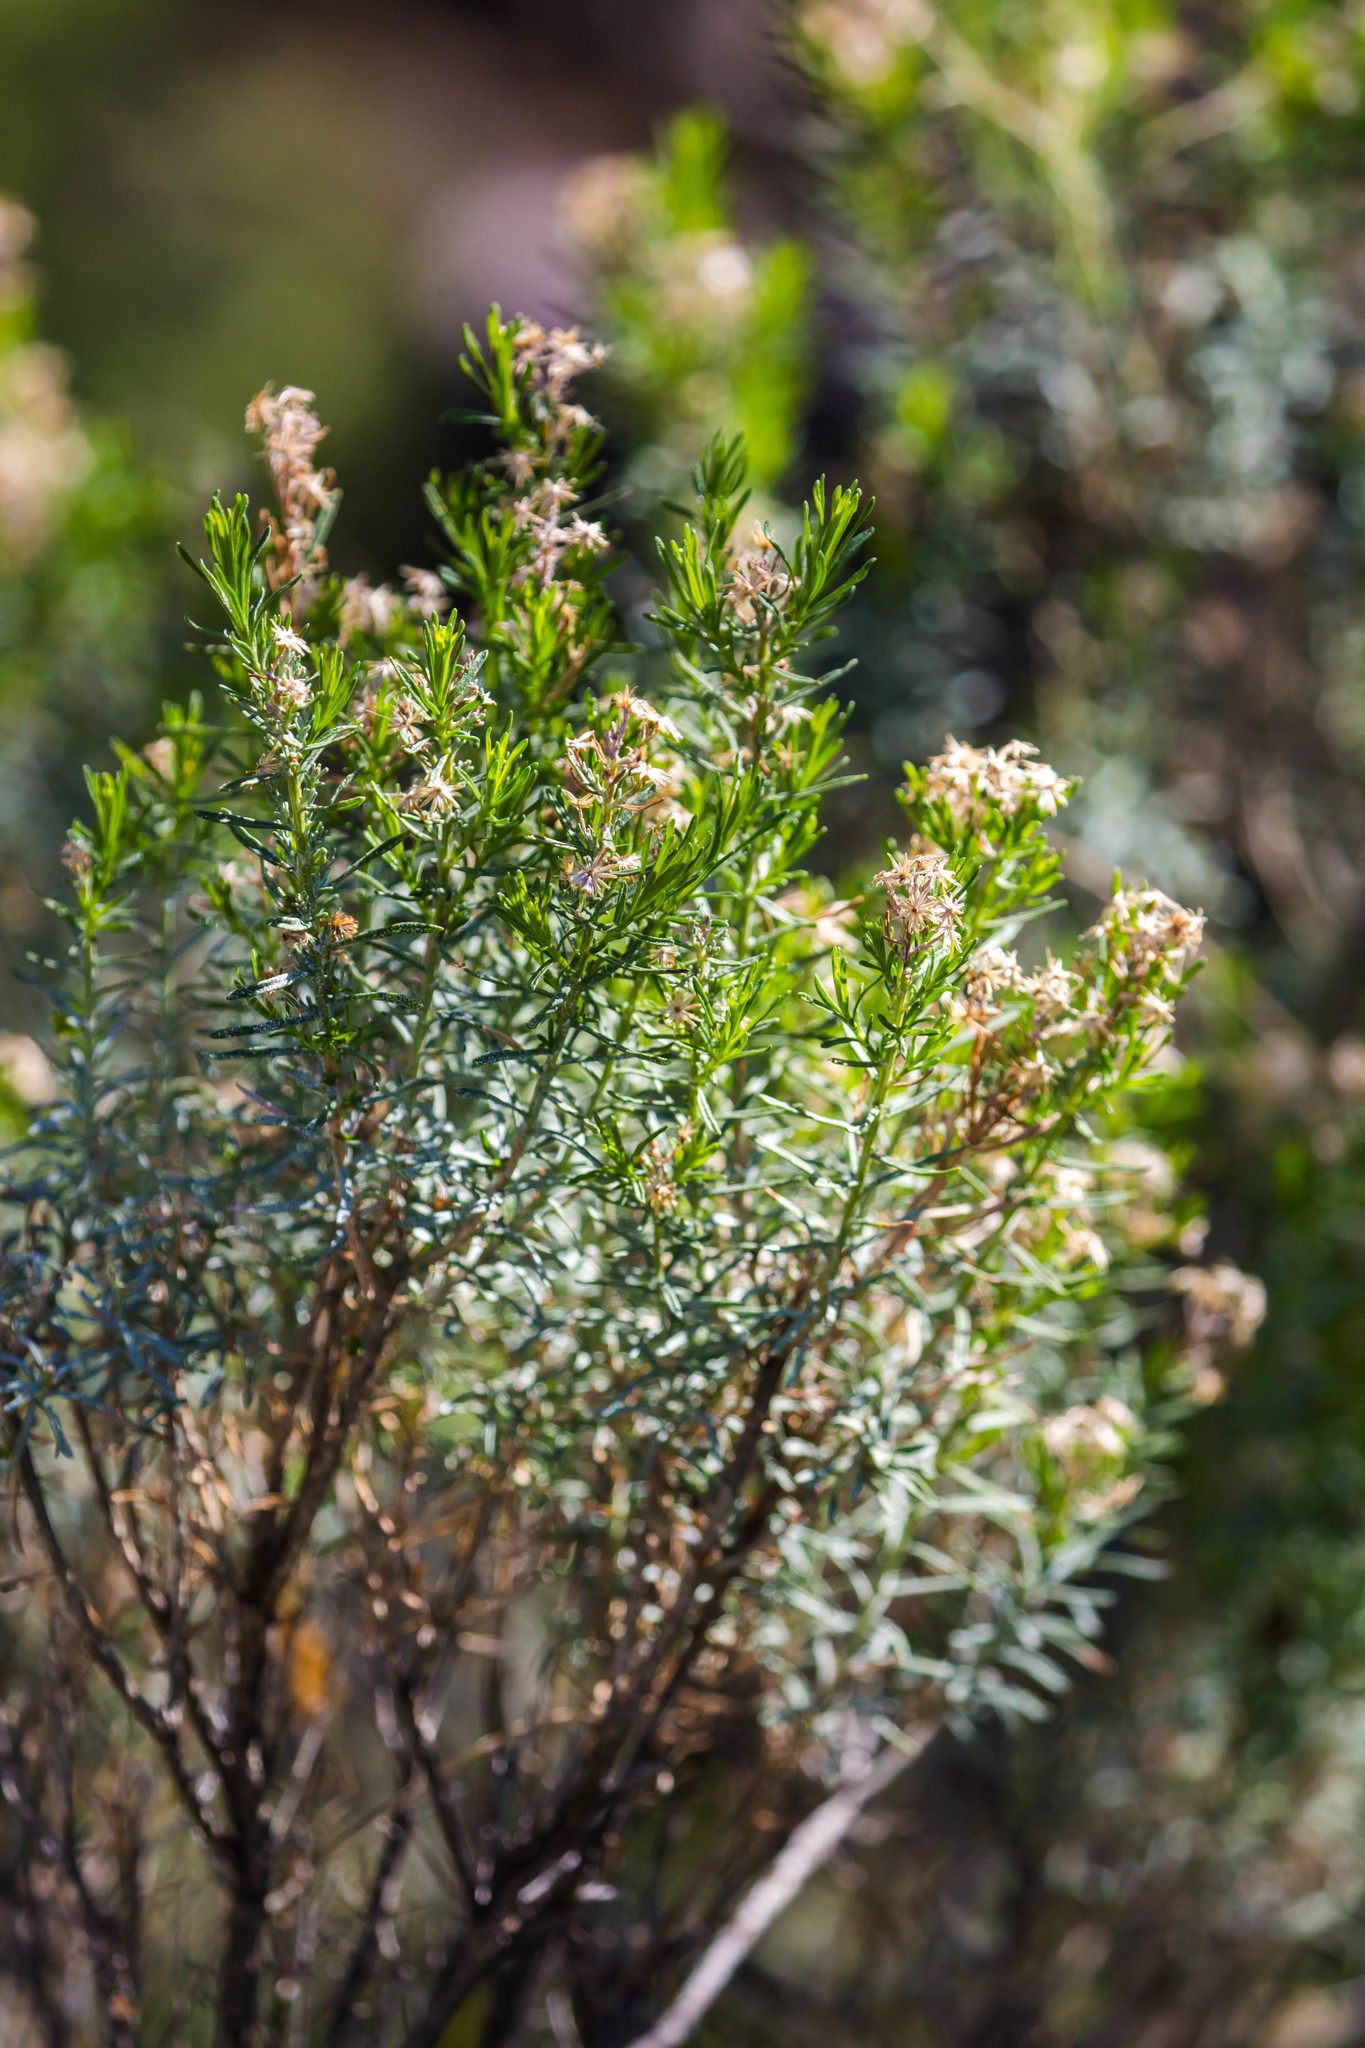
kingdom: Plantae
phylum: Tracheophyta
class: Magnoliopsida
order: Asterales
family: Asteraceae
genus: Ericameria
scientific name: Ericameria laricifolia
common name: Turpentine-bush
